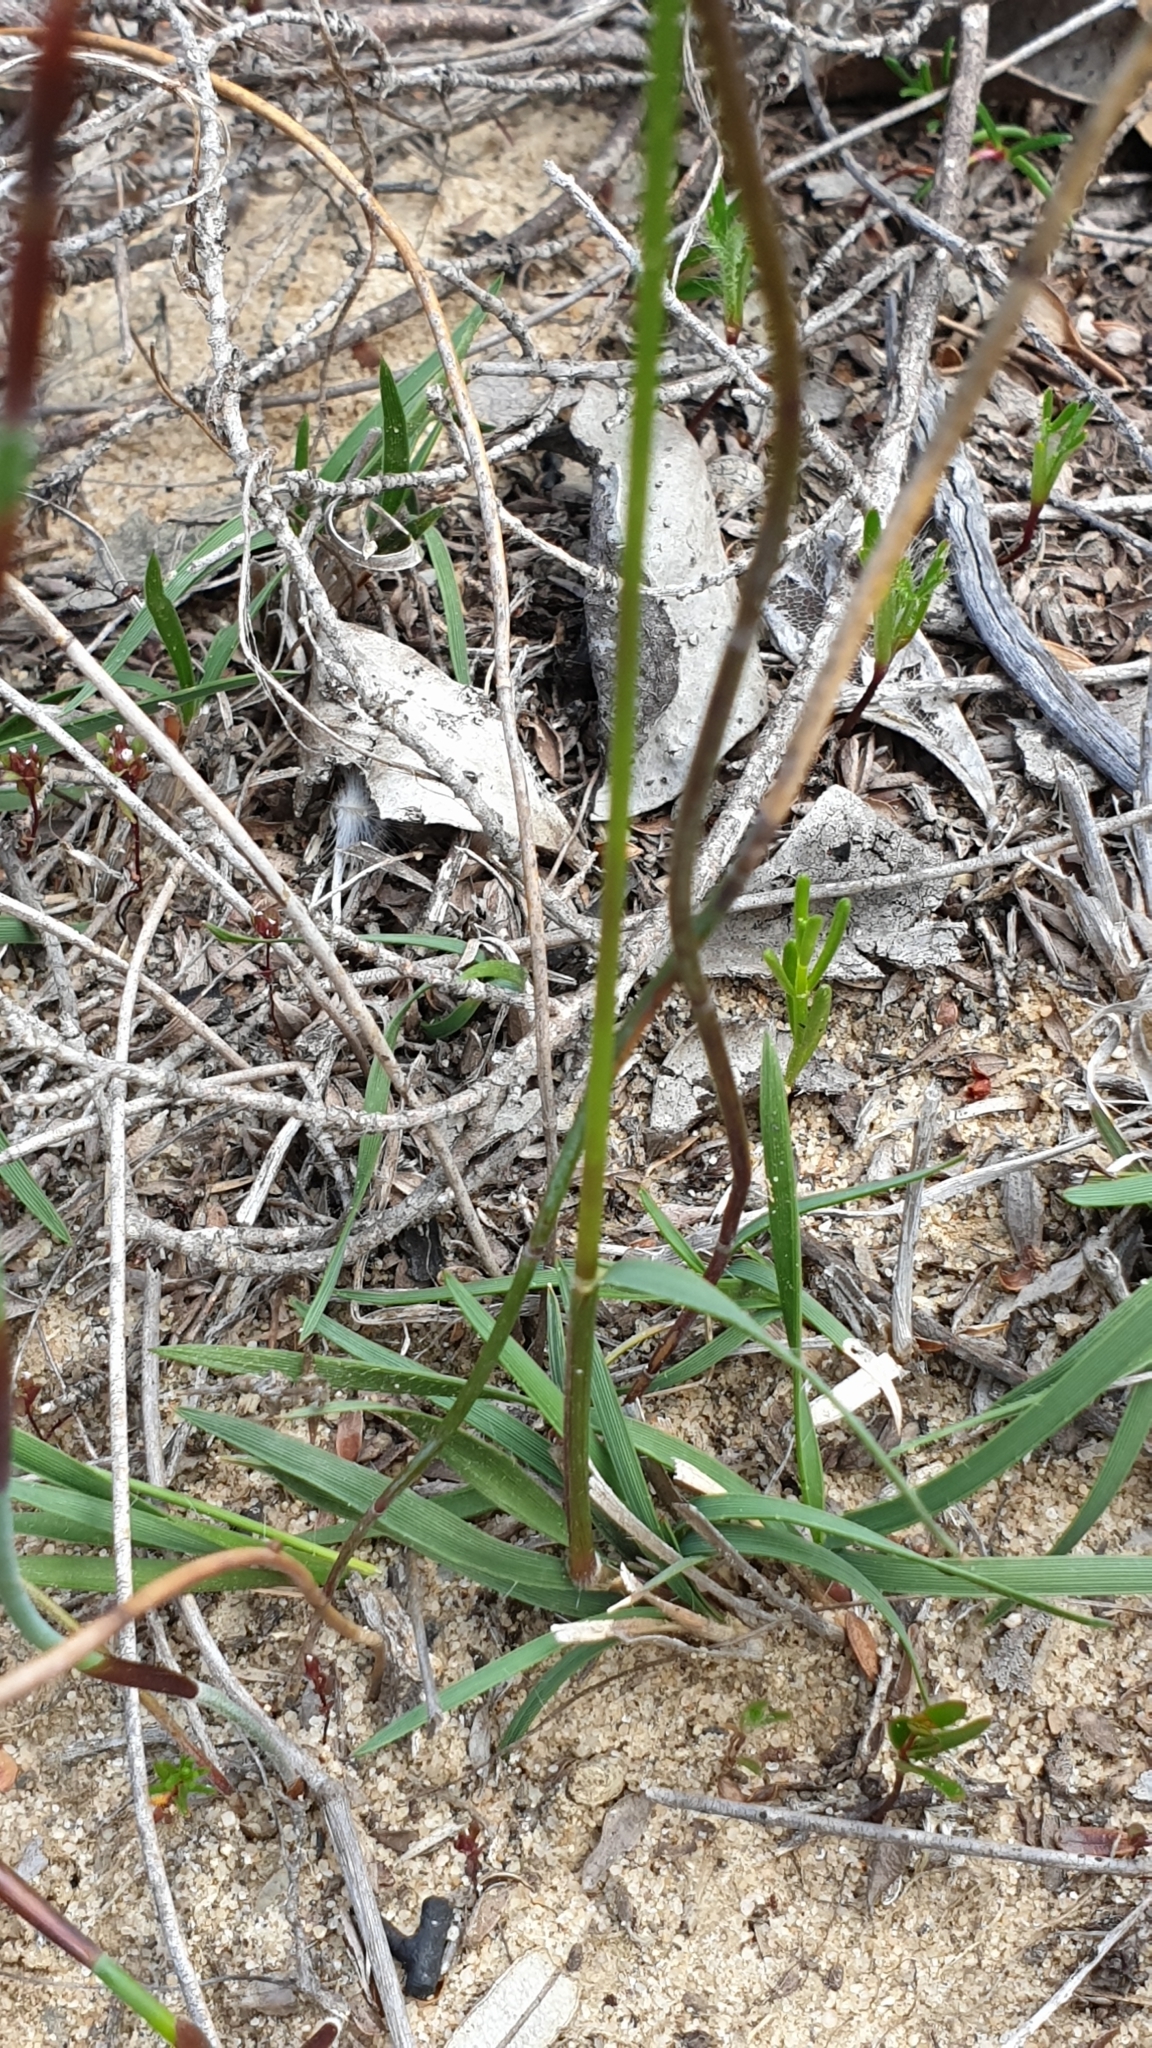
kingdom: Plantae
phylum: Tracheophyta
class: Liliopsida
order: Poales
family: Poaceae
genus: Neurachne
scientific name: Neurachne alopecuroidea
